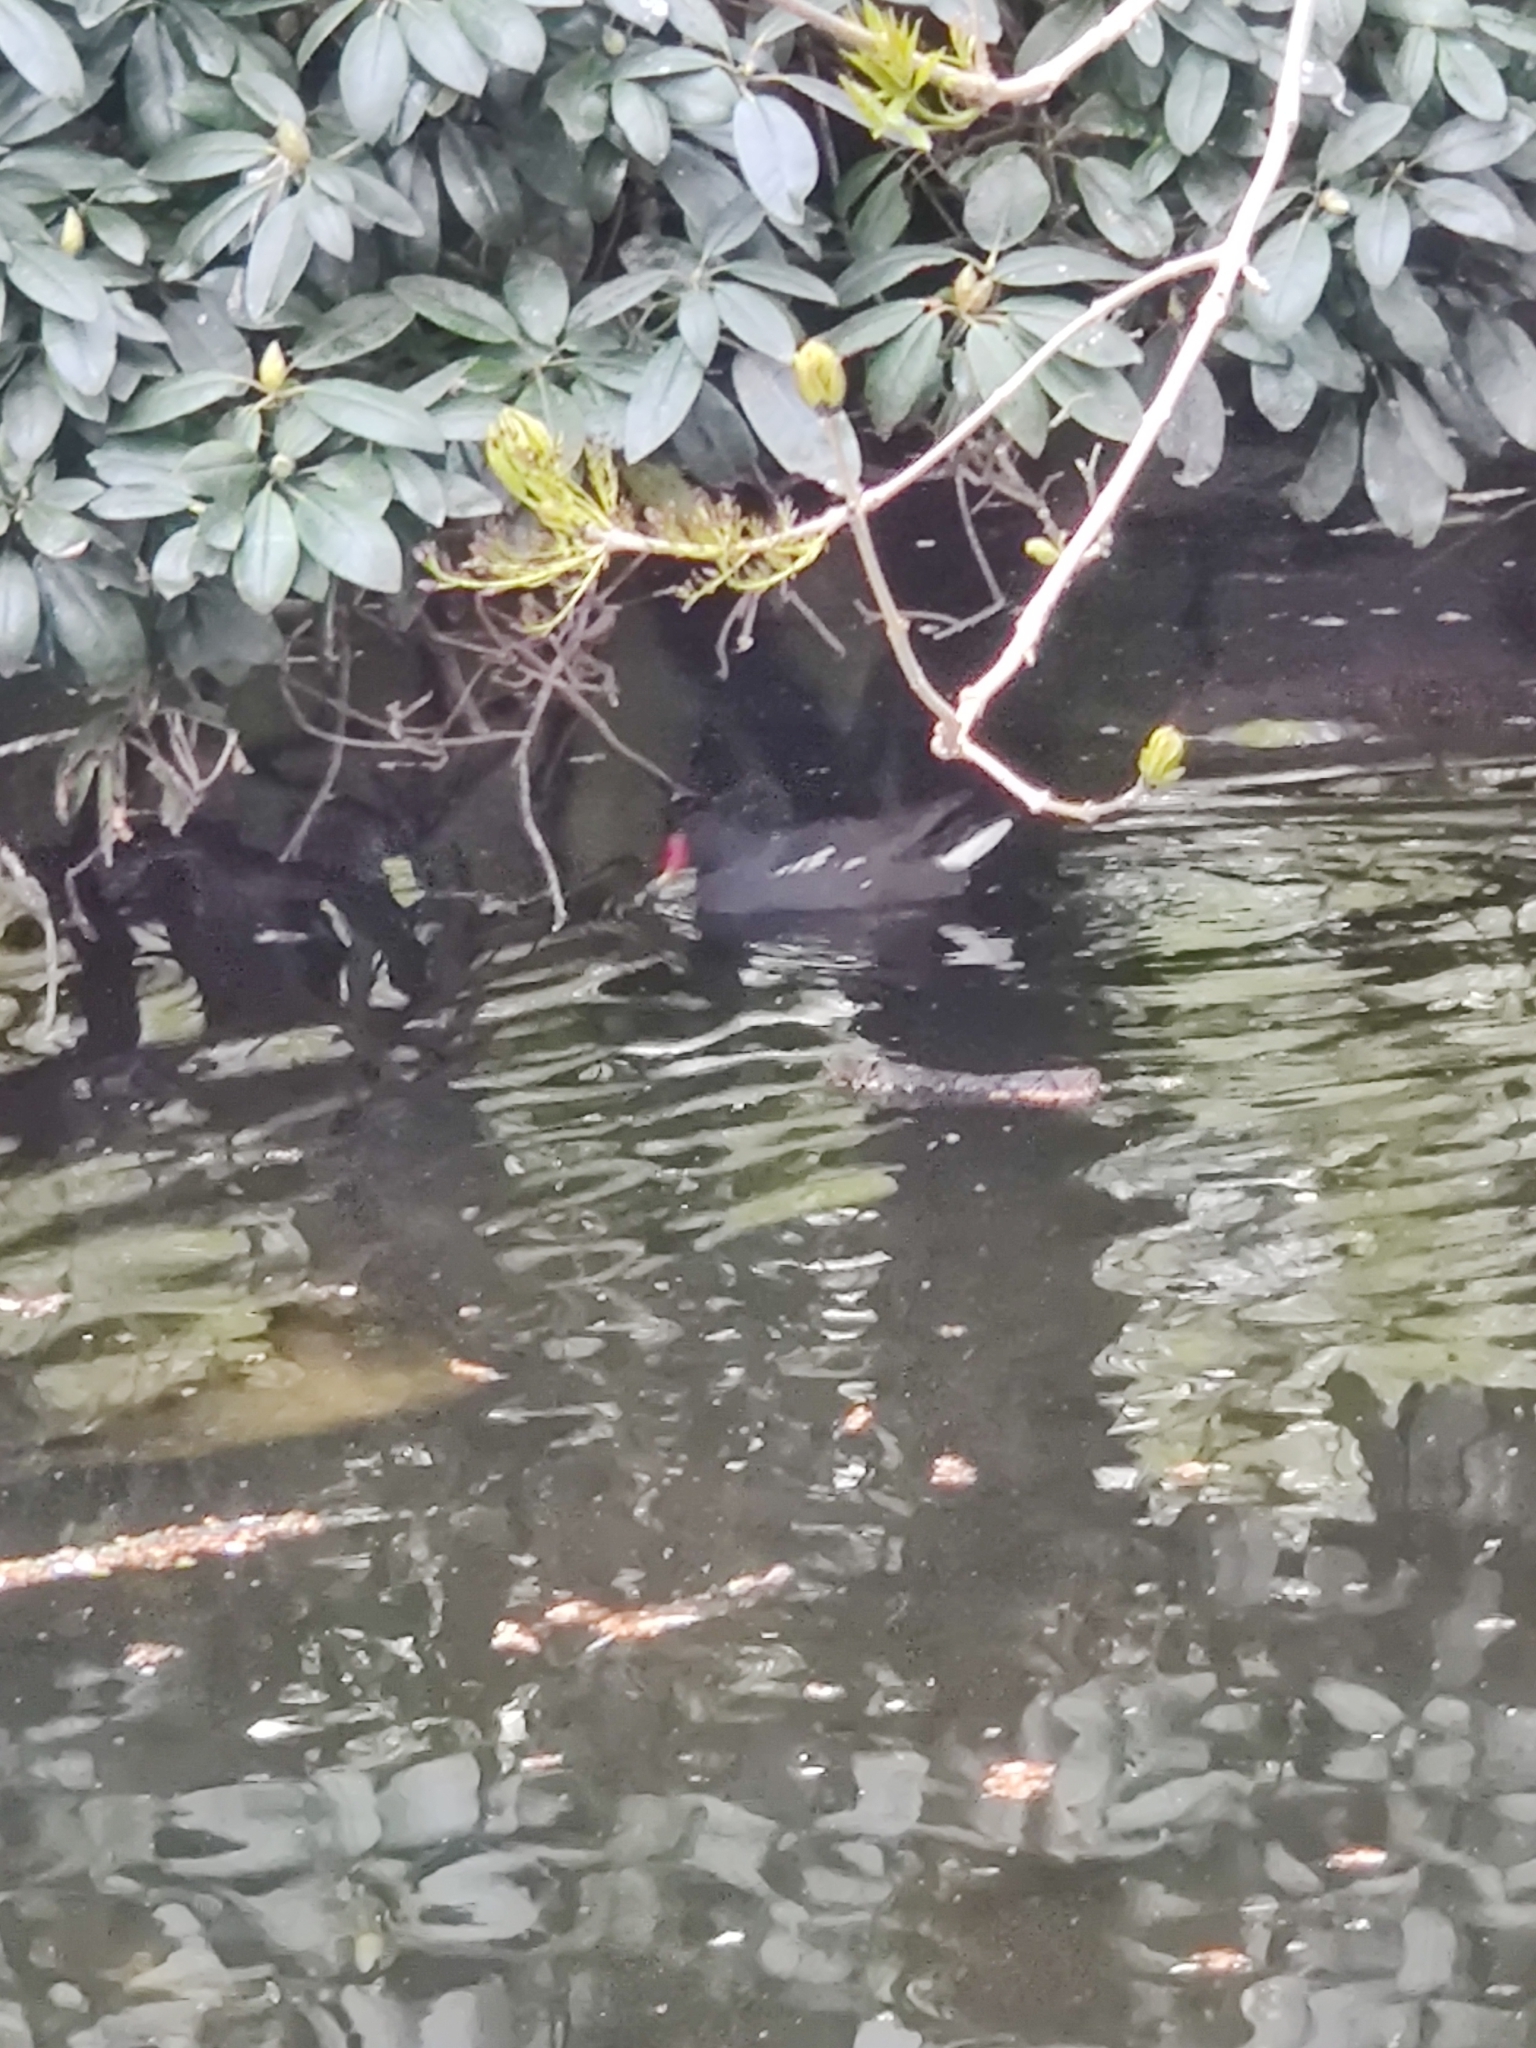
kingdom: Animalia
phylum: Chordata
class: Aves
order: Gruiformes
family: Rallidae
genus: Gallinula
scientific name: Gallinula chloropus
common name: Common moorhen
